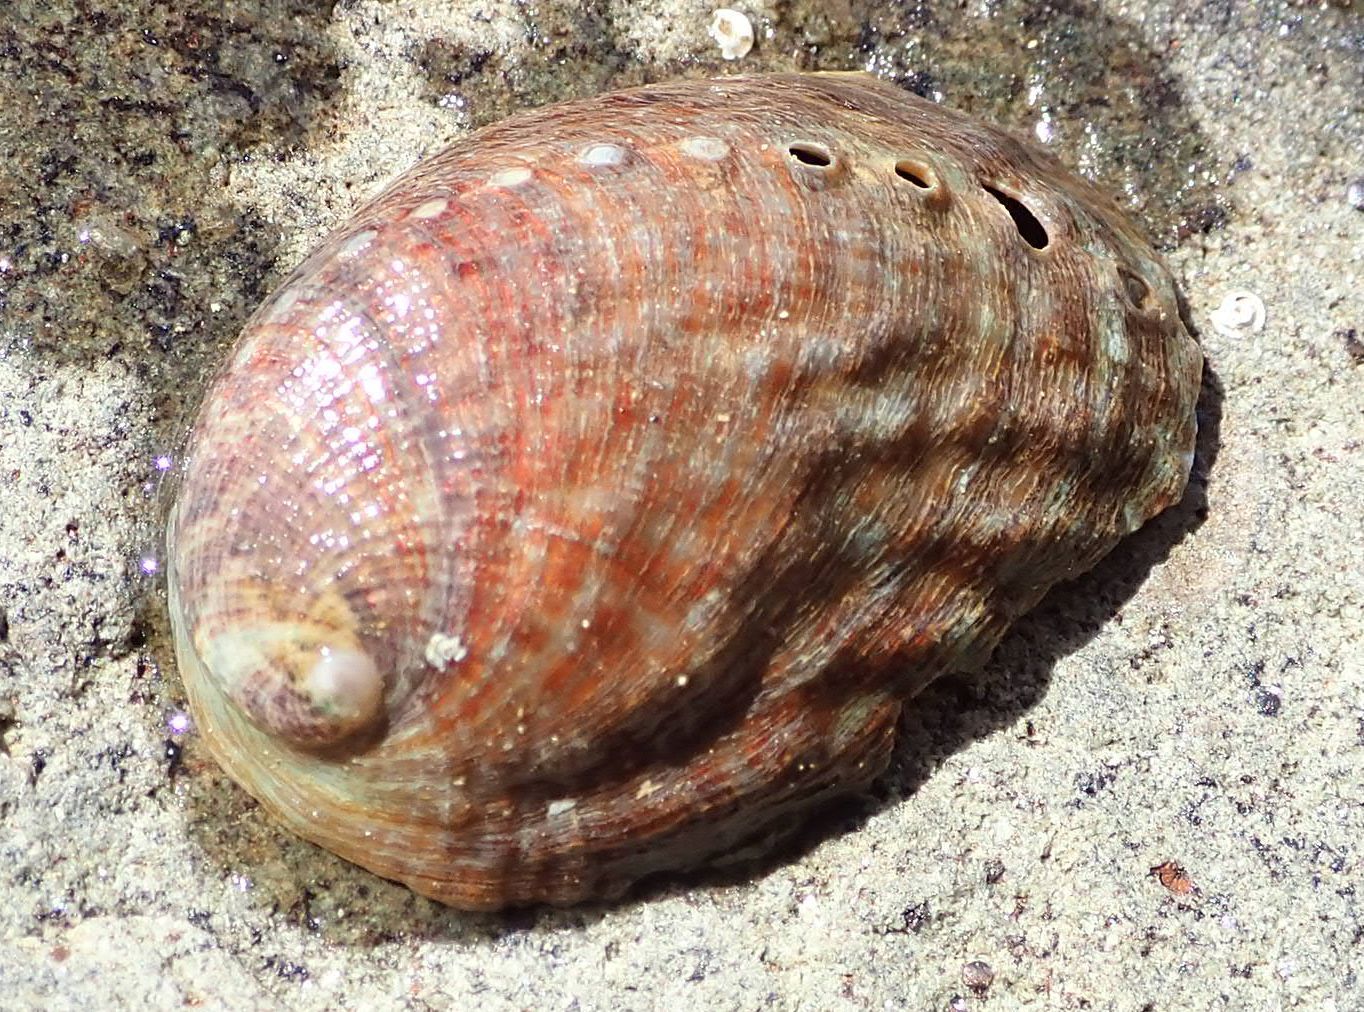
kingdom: Animalia
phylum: Mollusca
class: Gastropoda
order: Lepetellida
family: Haliotidae
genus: Haliotis
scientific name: Haliotis iris
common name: Abalone
